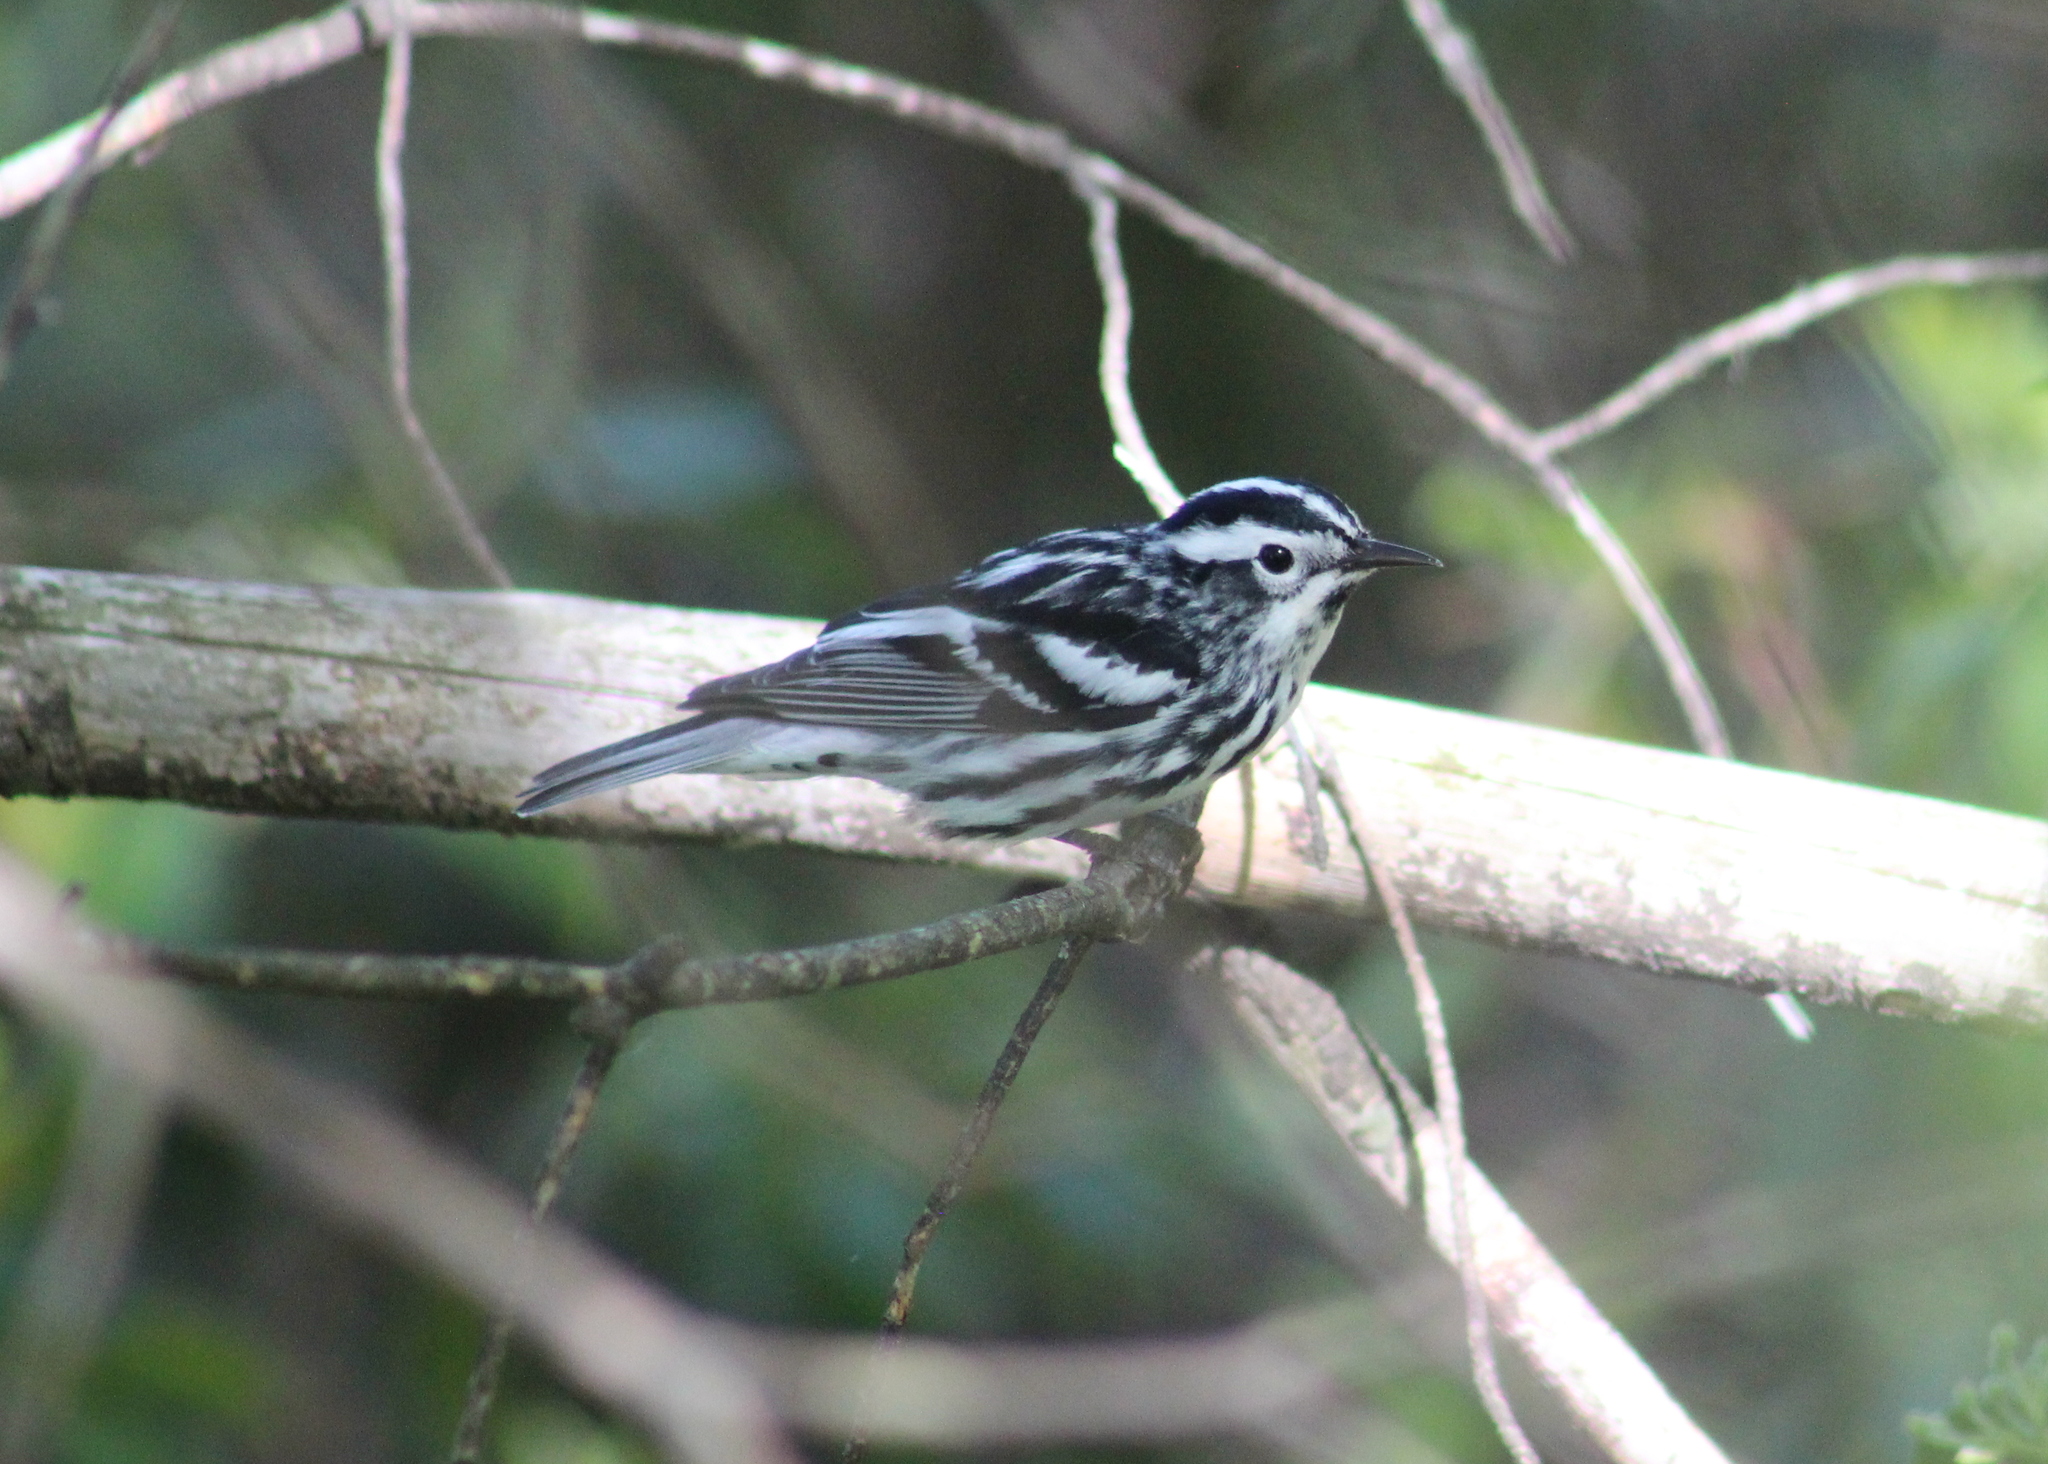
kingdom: Animalia
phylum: Chordata
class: Aves
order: Passeriformes
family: Parulidae
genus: Mniotilta
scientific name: Mniotilta varia
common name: Black-and-white warbler
